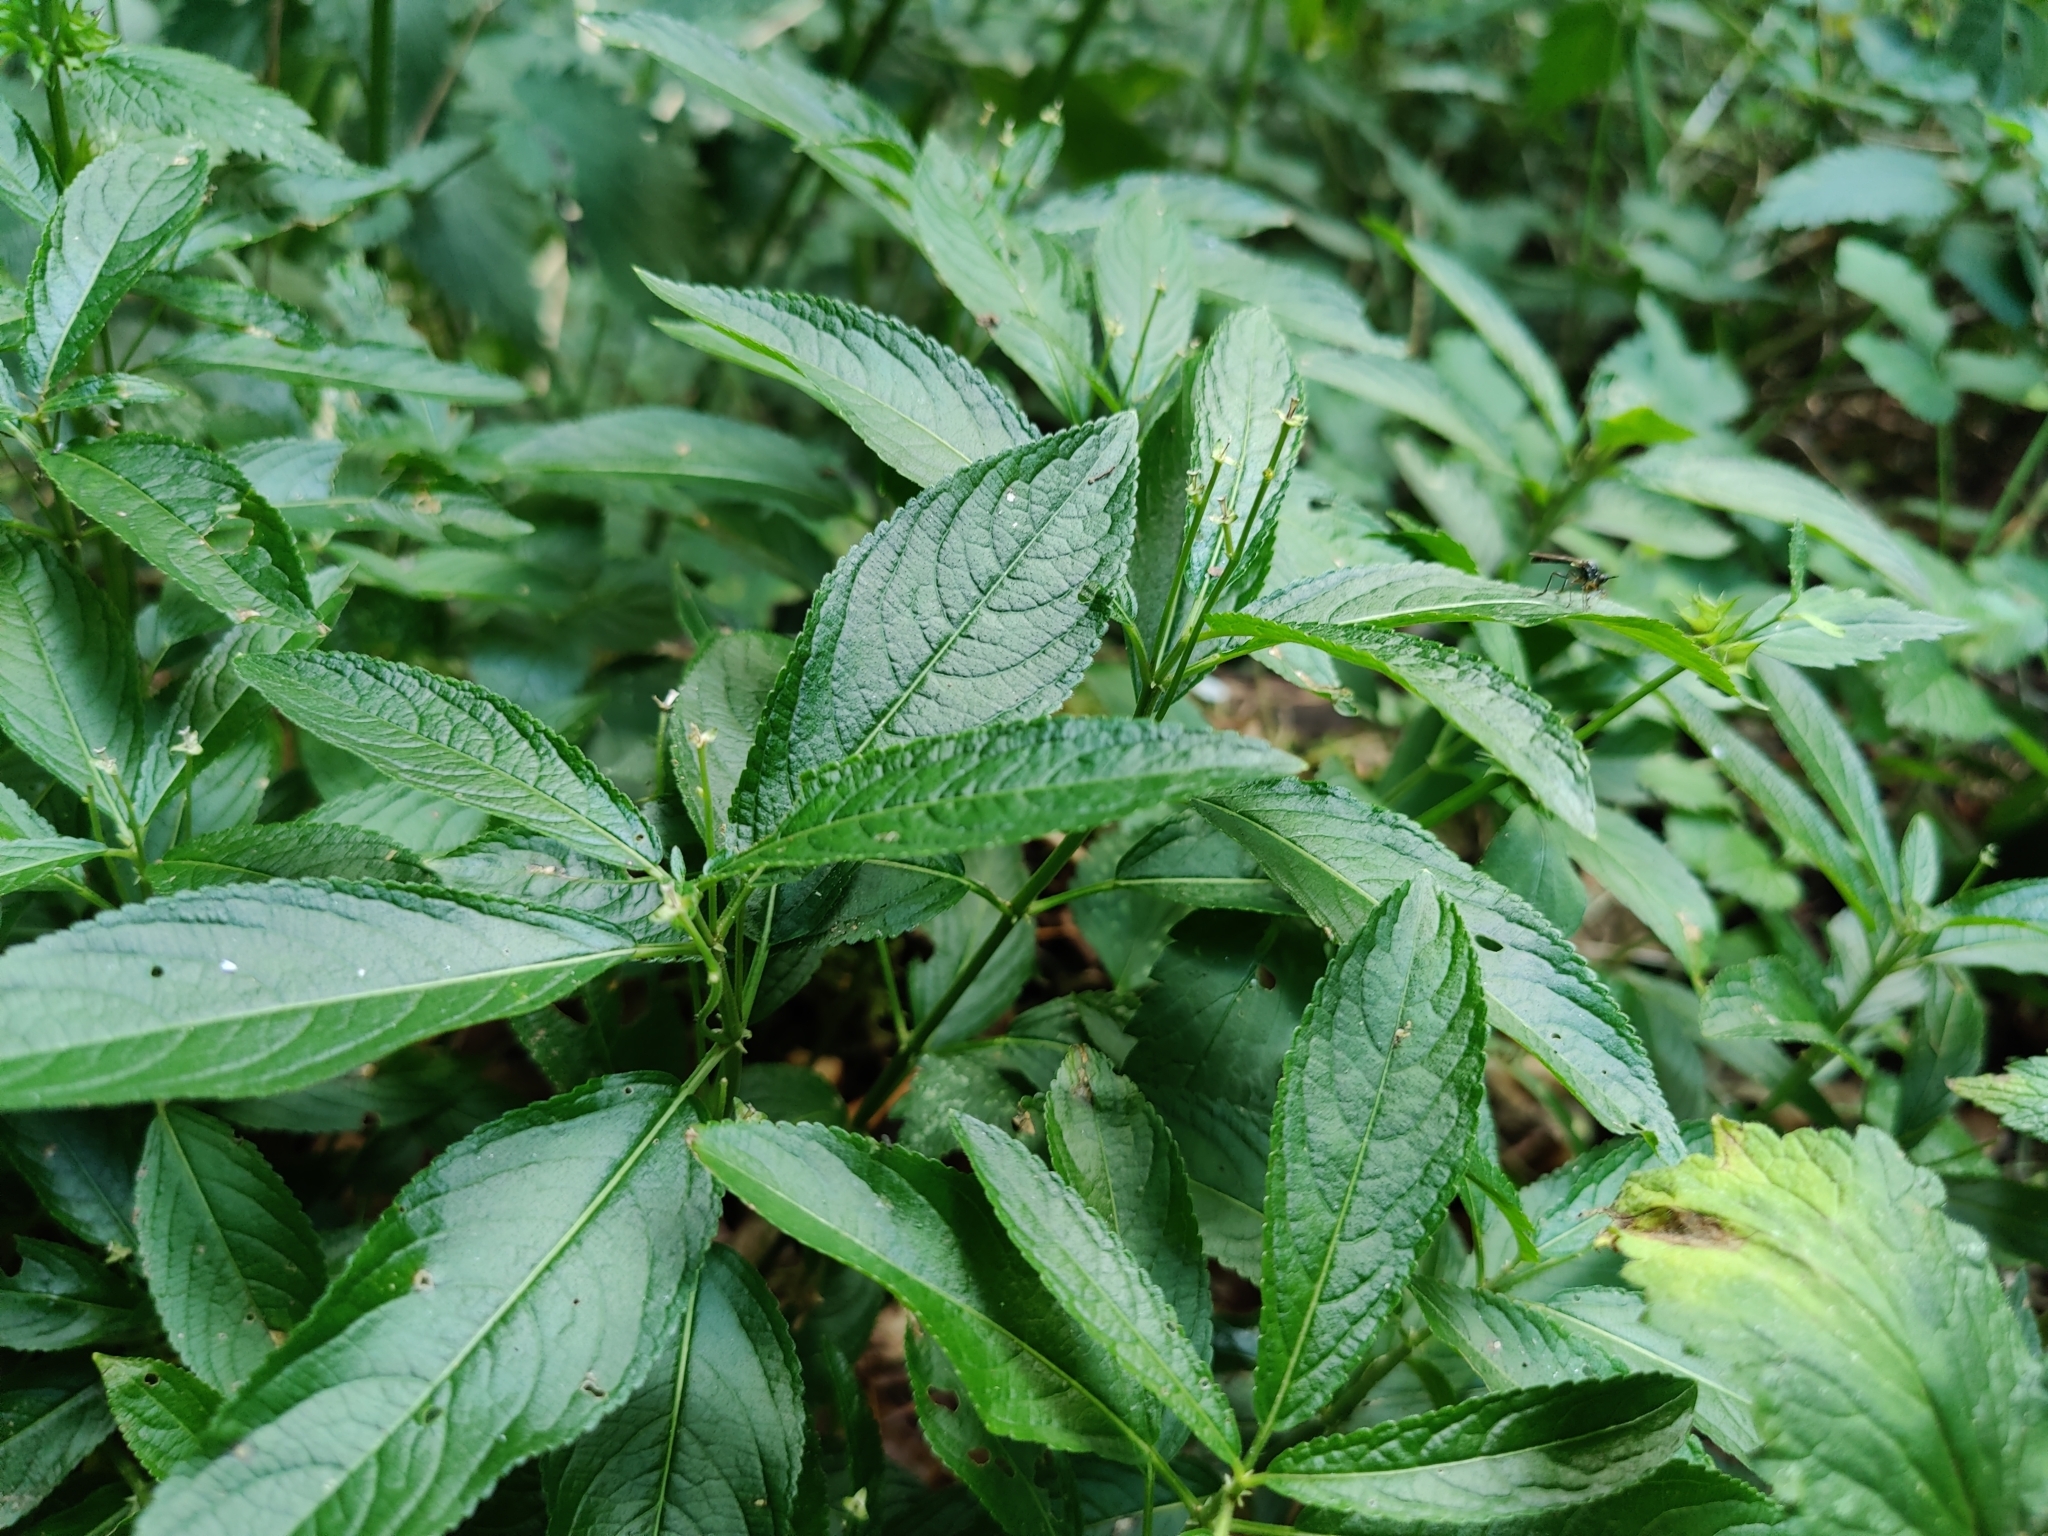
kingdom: Plantae
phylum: Tracheophyta
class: Magnoliopsida
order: Malpighiales
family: Euphorbiaceae
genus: Mercurialis
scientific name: Mercurialis perennis
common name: Dog mercury
